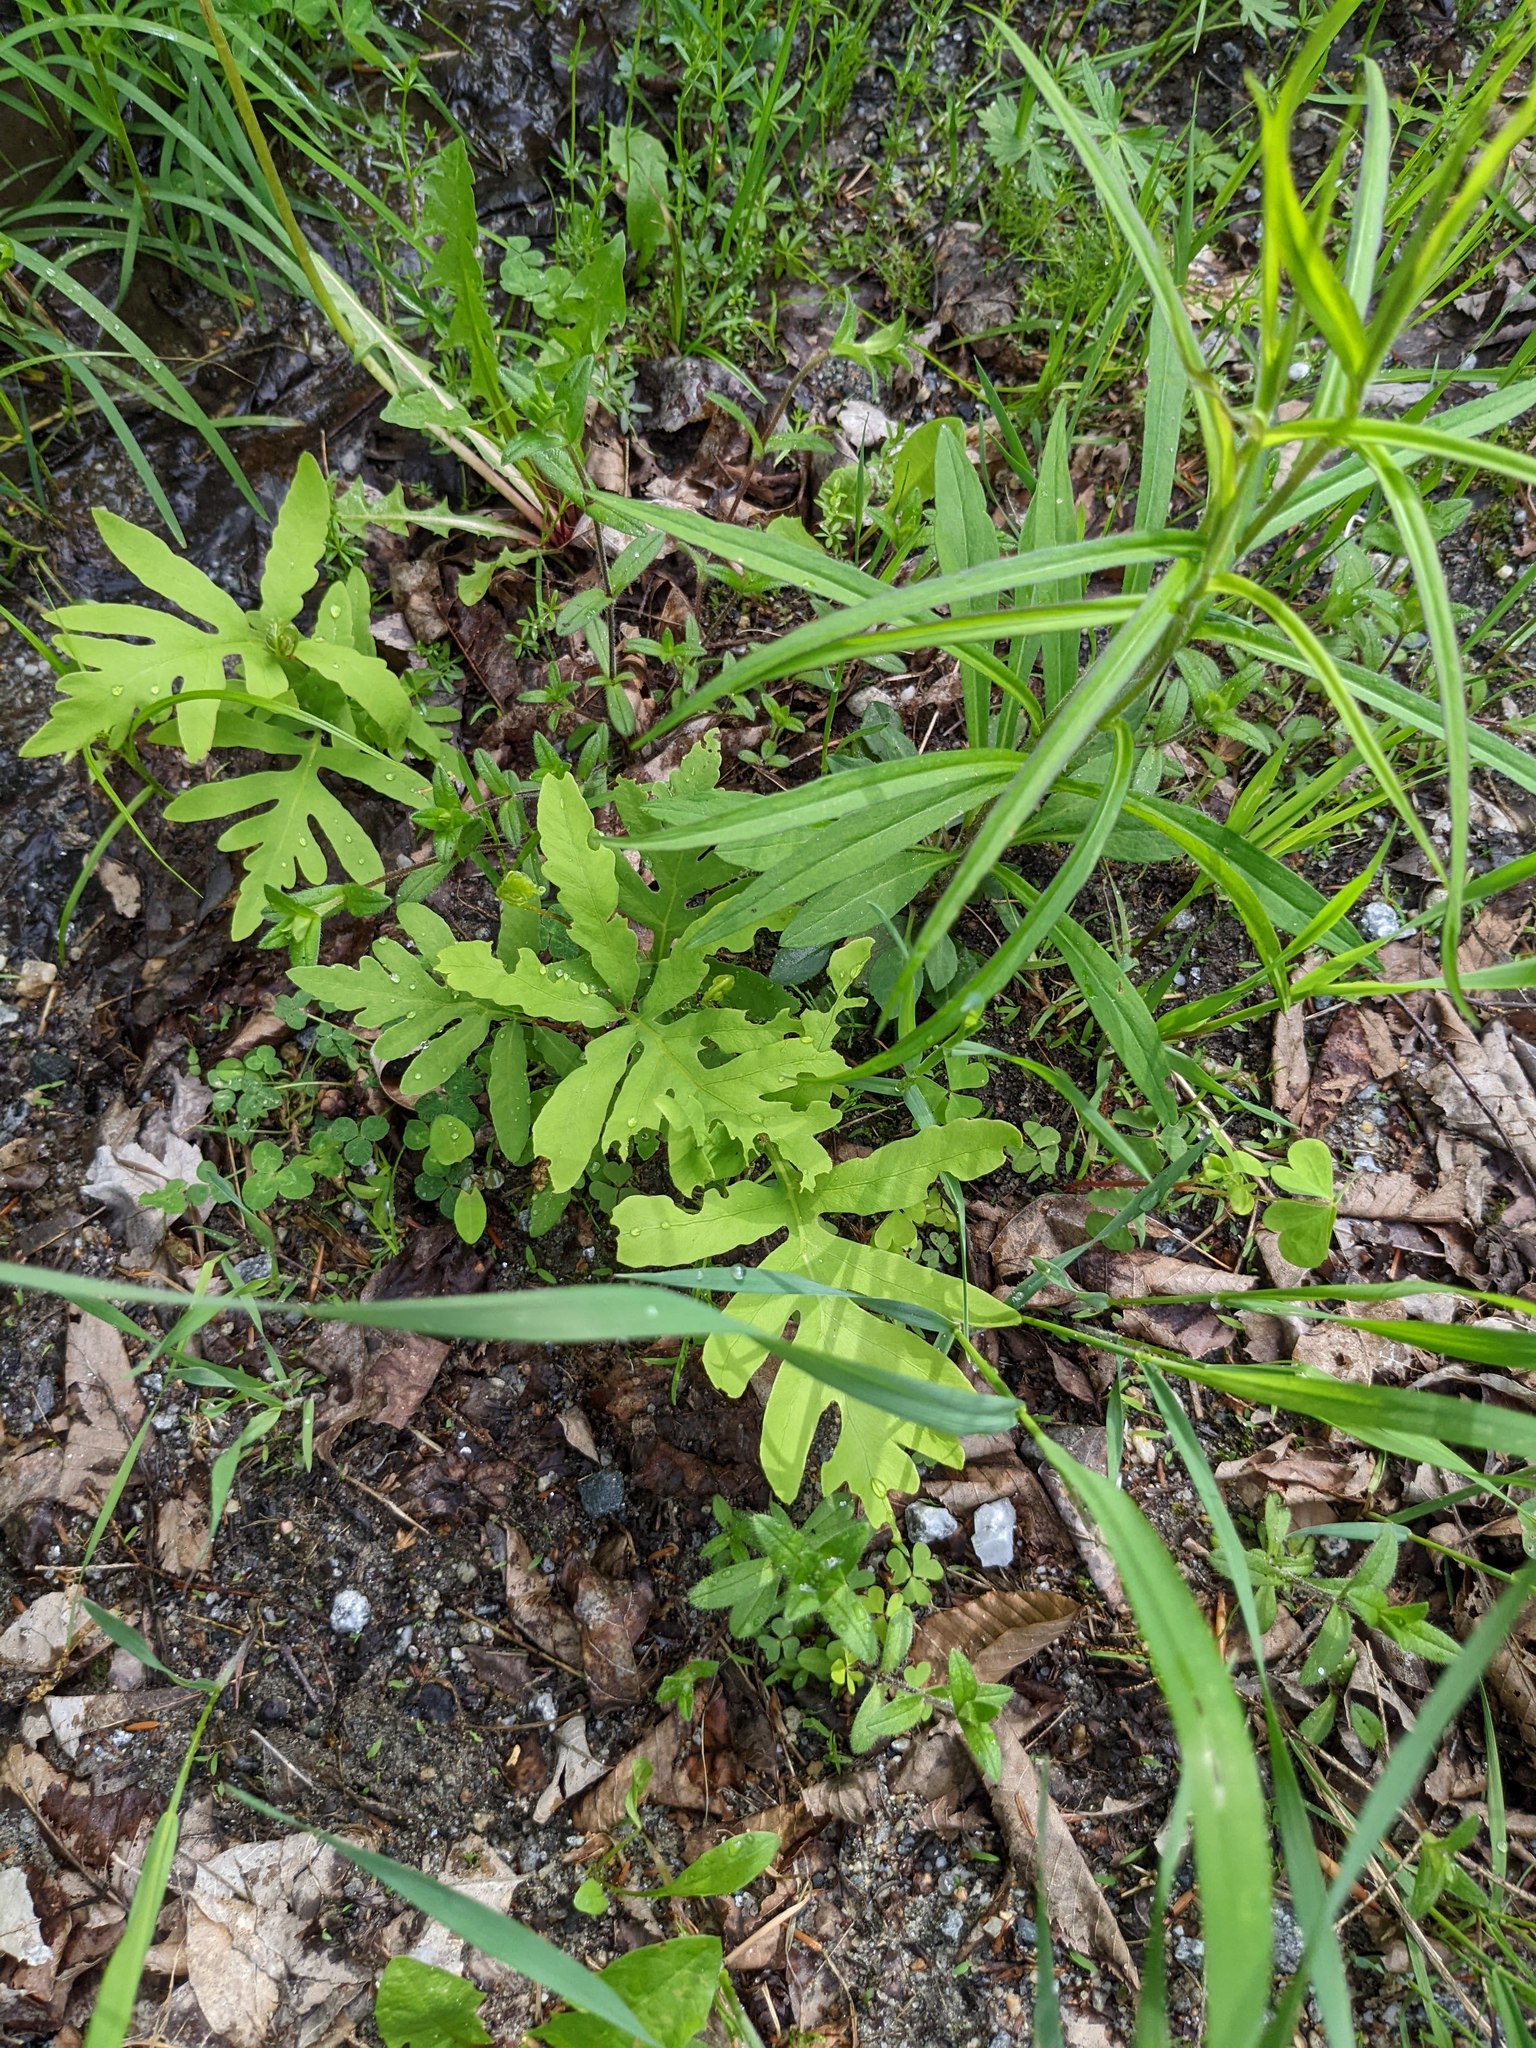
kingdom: Plantae
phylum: Tracheophyta
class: Polypodiopsida
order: Polypodiales
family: Onocleaceae
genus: Onoclea
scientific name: Onoclea sensibilis
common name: Sensitive fern
